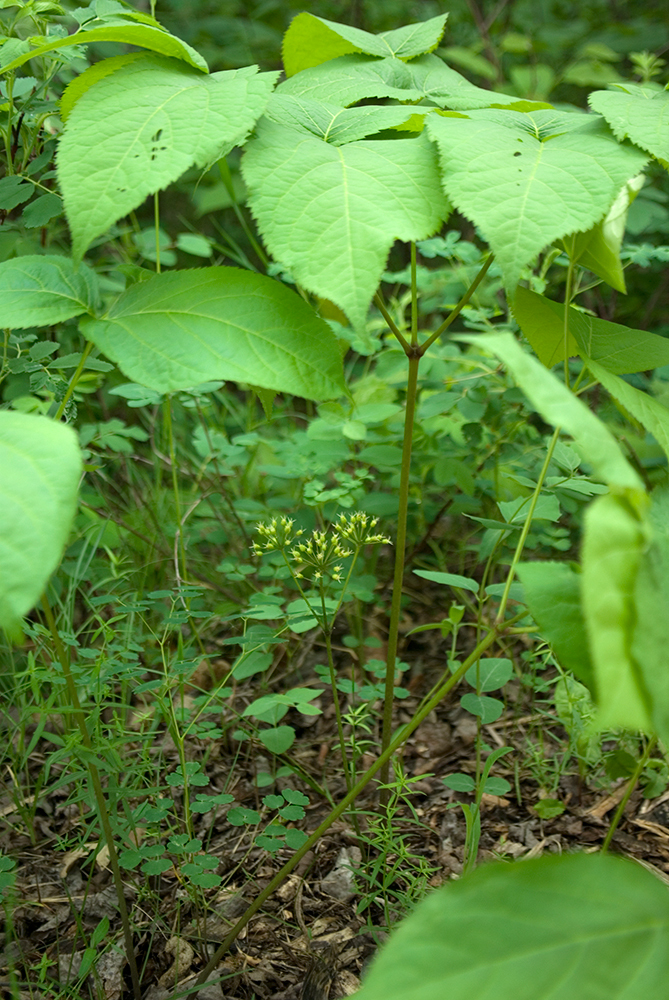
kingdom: Plantae
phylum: Tracheophyta
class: Magnoliopsida
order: Apiales
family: Araliaceae
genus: Aralia
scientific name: Aralia nudicaulis
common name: Wild sarsaparilla
